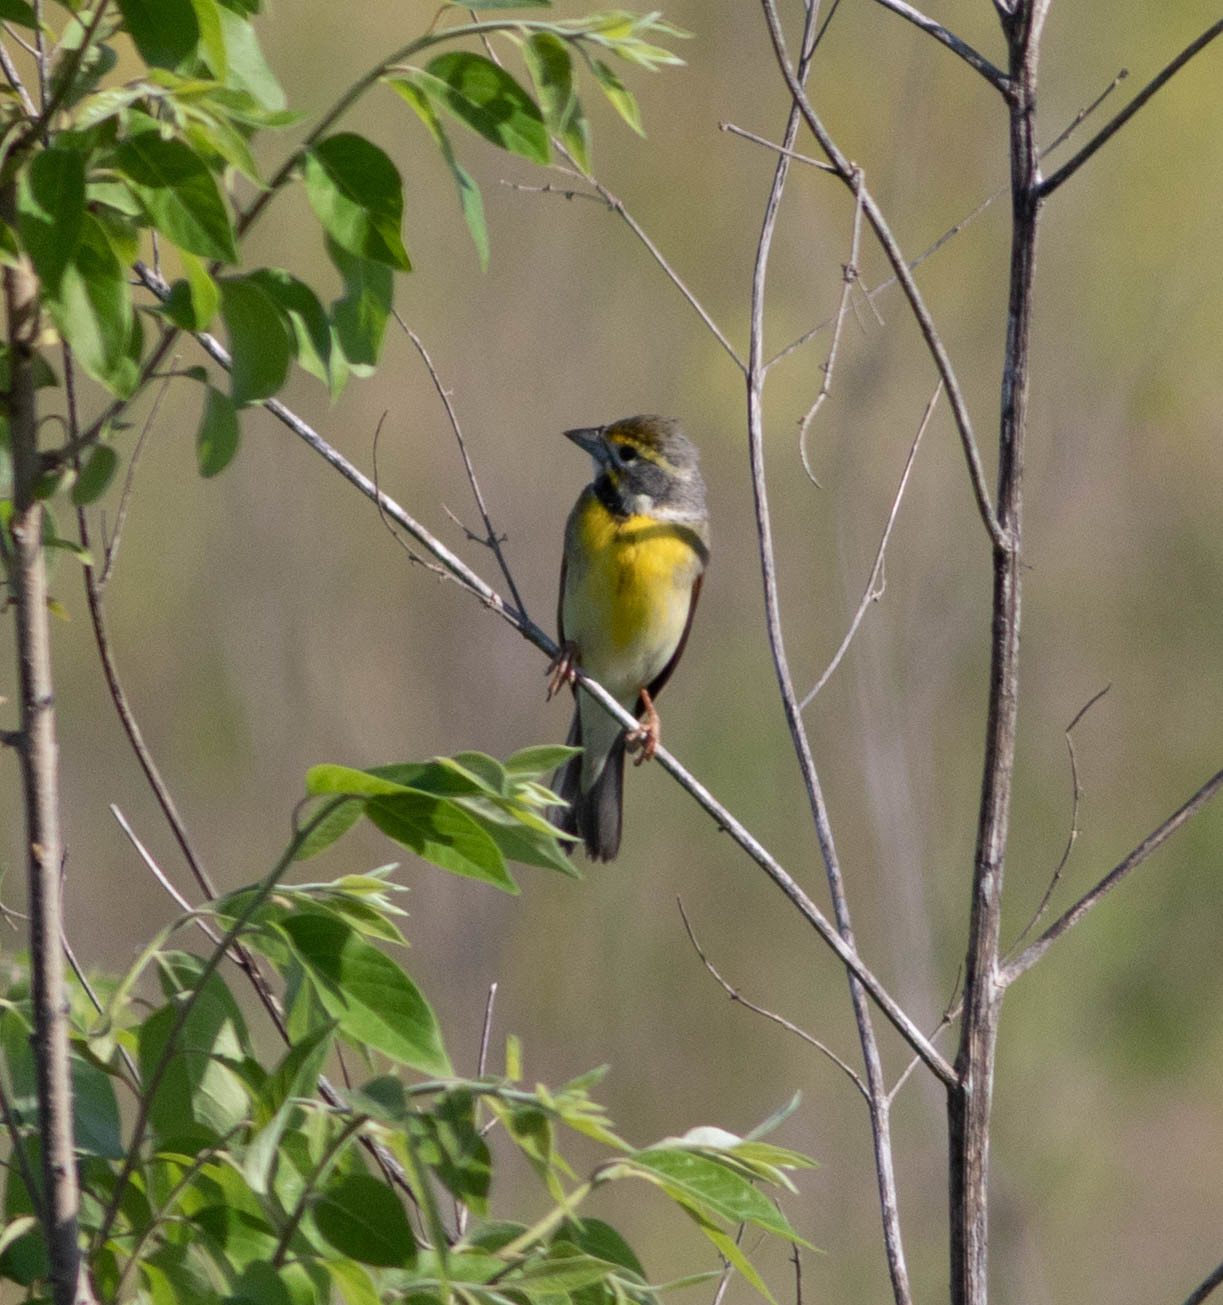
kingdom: Animalia
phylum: Chordata
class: Aves
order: Passeriformes
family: Cardinalidae
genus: Spiza
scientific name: Spiza americana
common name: Dickcissel
